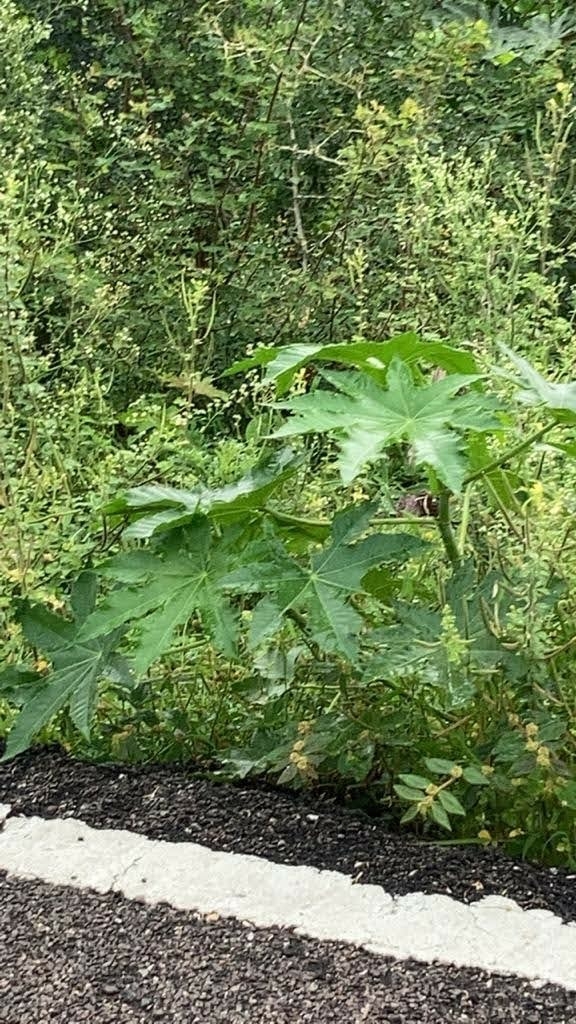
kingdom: Plantae
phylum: Tracheophyta
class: Magnoliopsida
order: Malpighiales
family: Euphorbiaceae
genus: Ricinus
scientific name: Ricinus communis
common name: Castor-oil-plant
